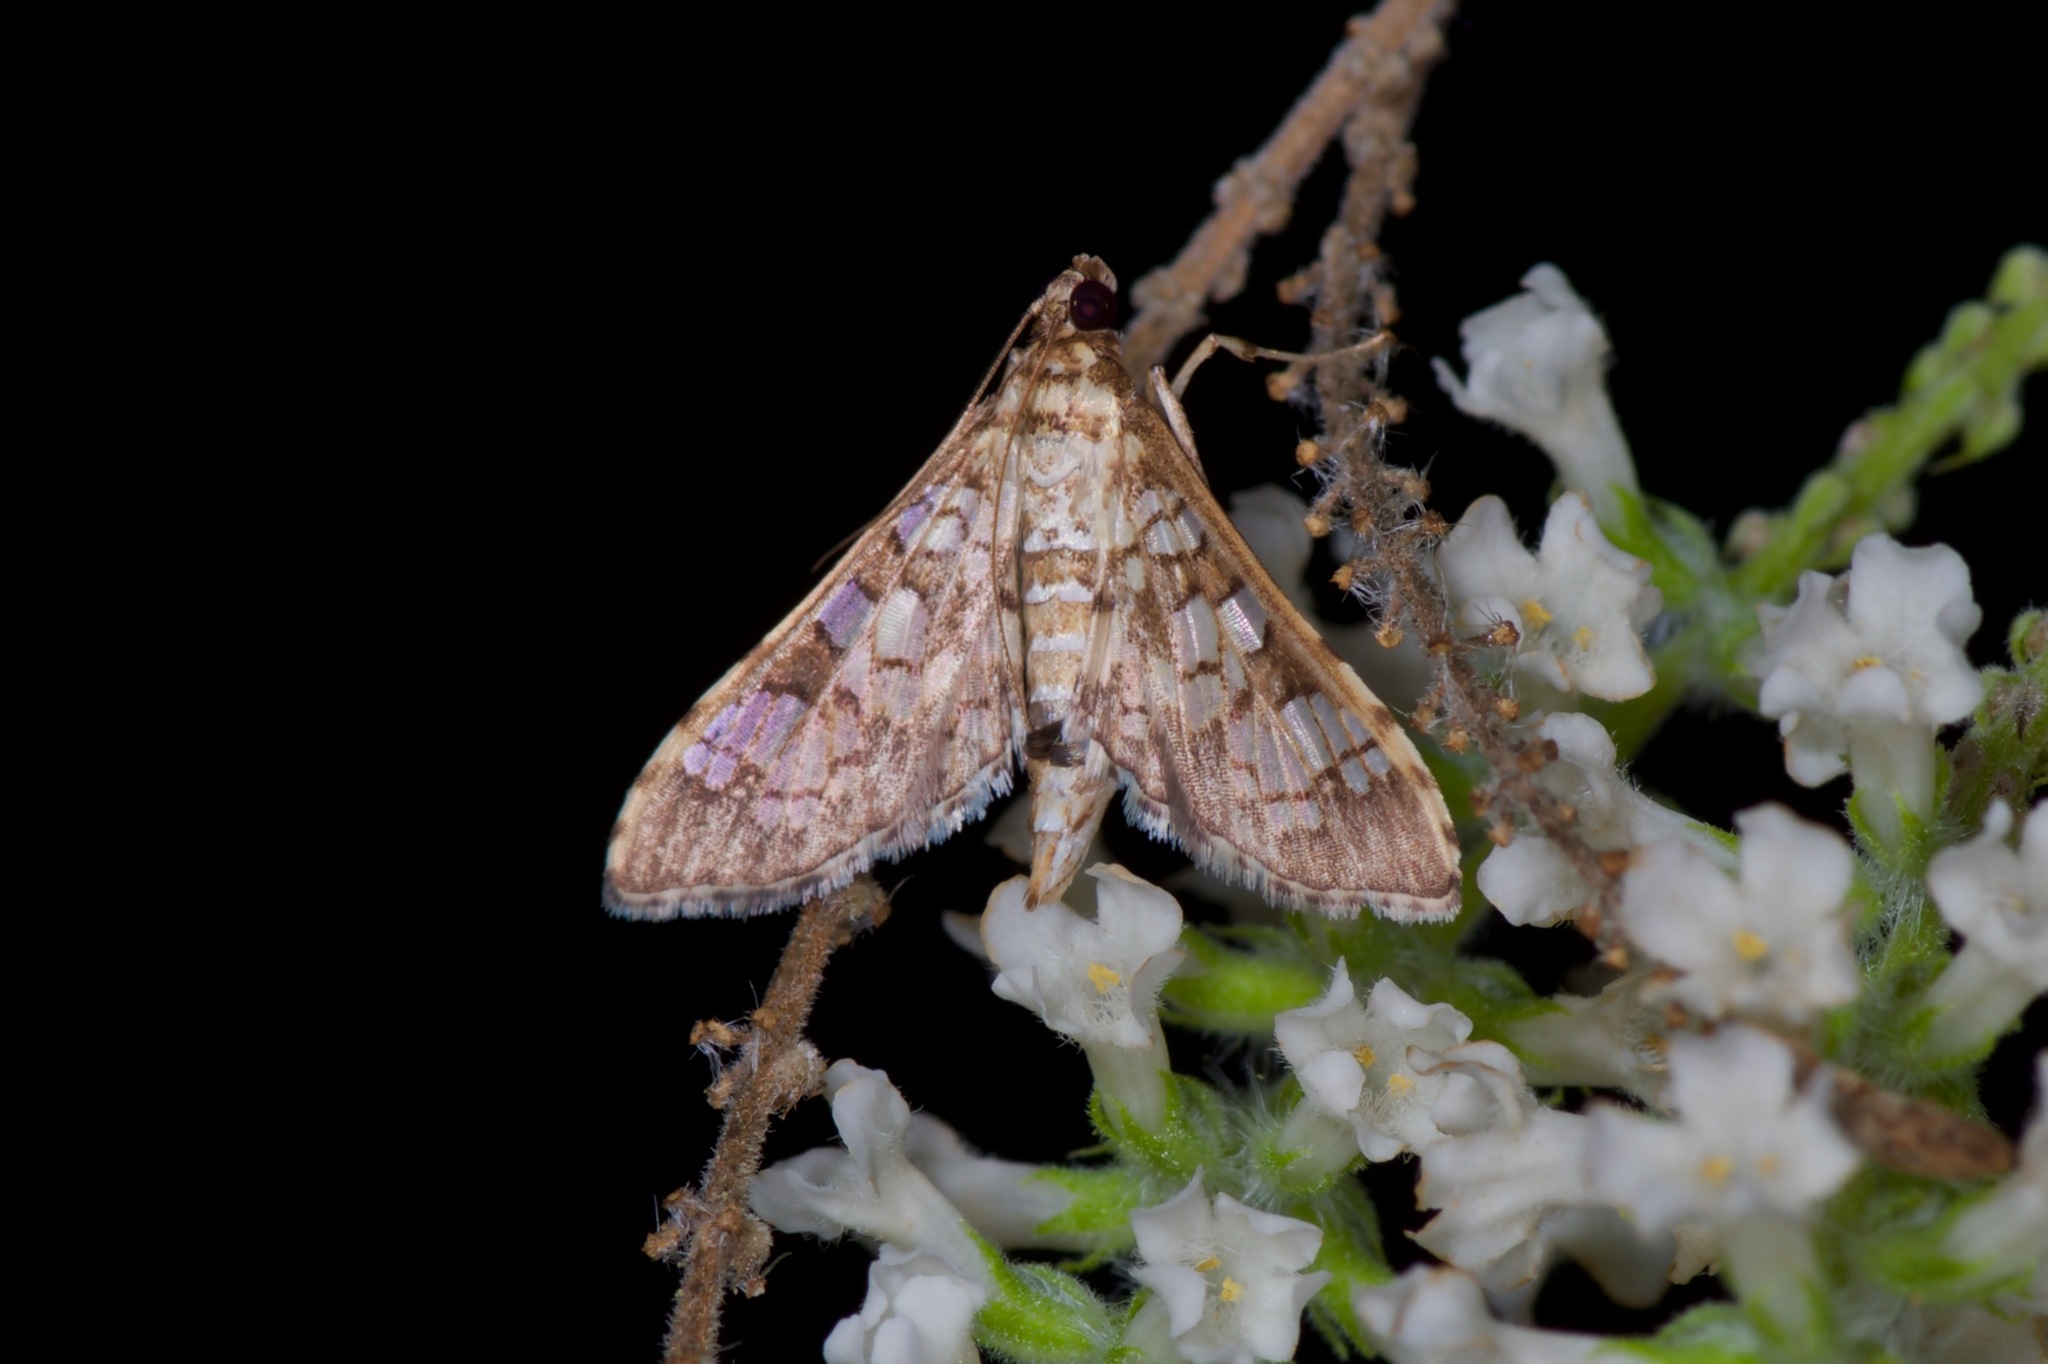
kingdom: Animalia
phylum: Arthropoda
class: Insecta
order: Lepidoptera
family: Crambidae
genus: Samea
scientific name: Samea ecclesialis
